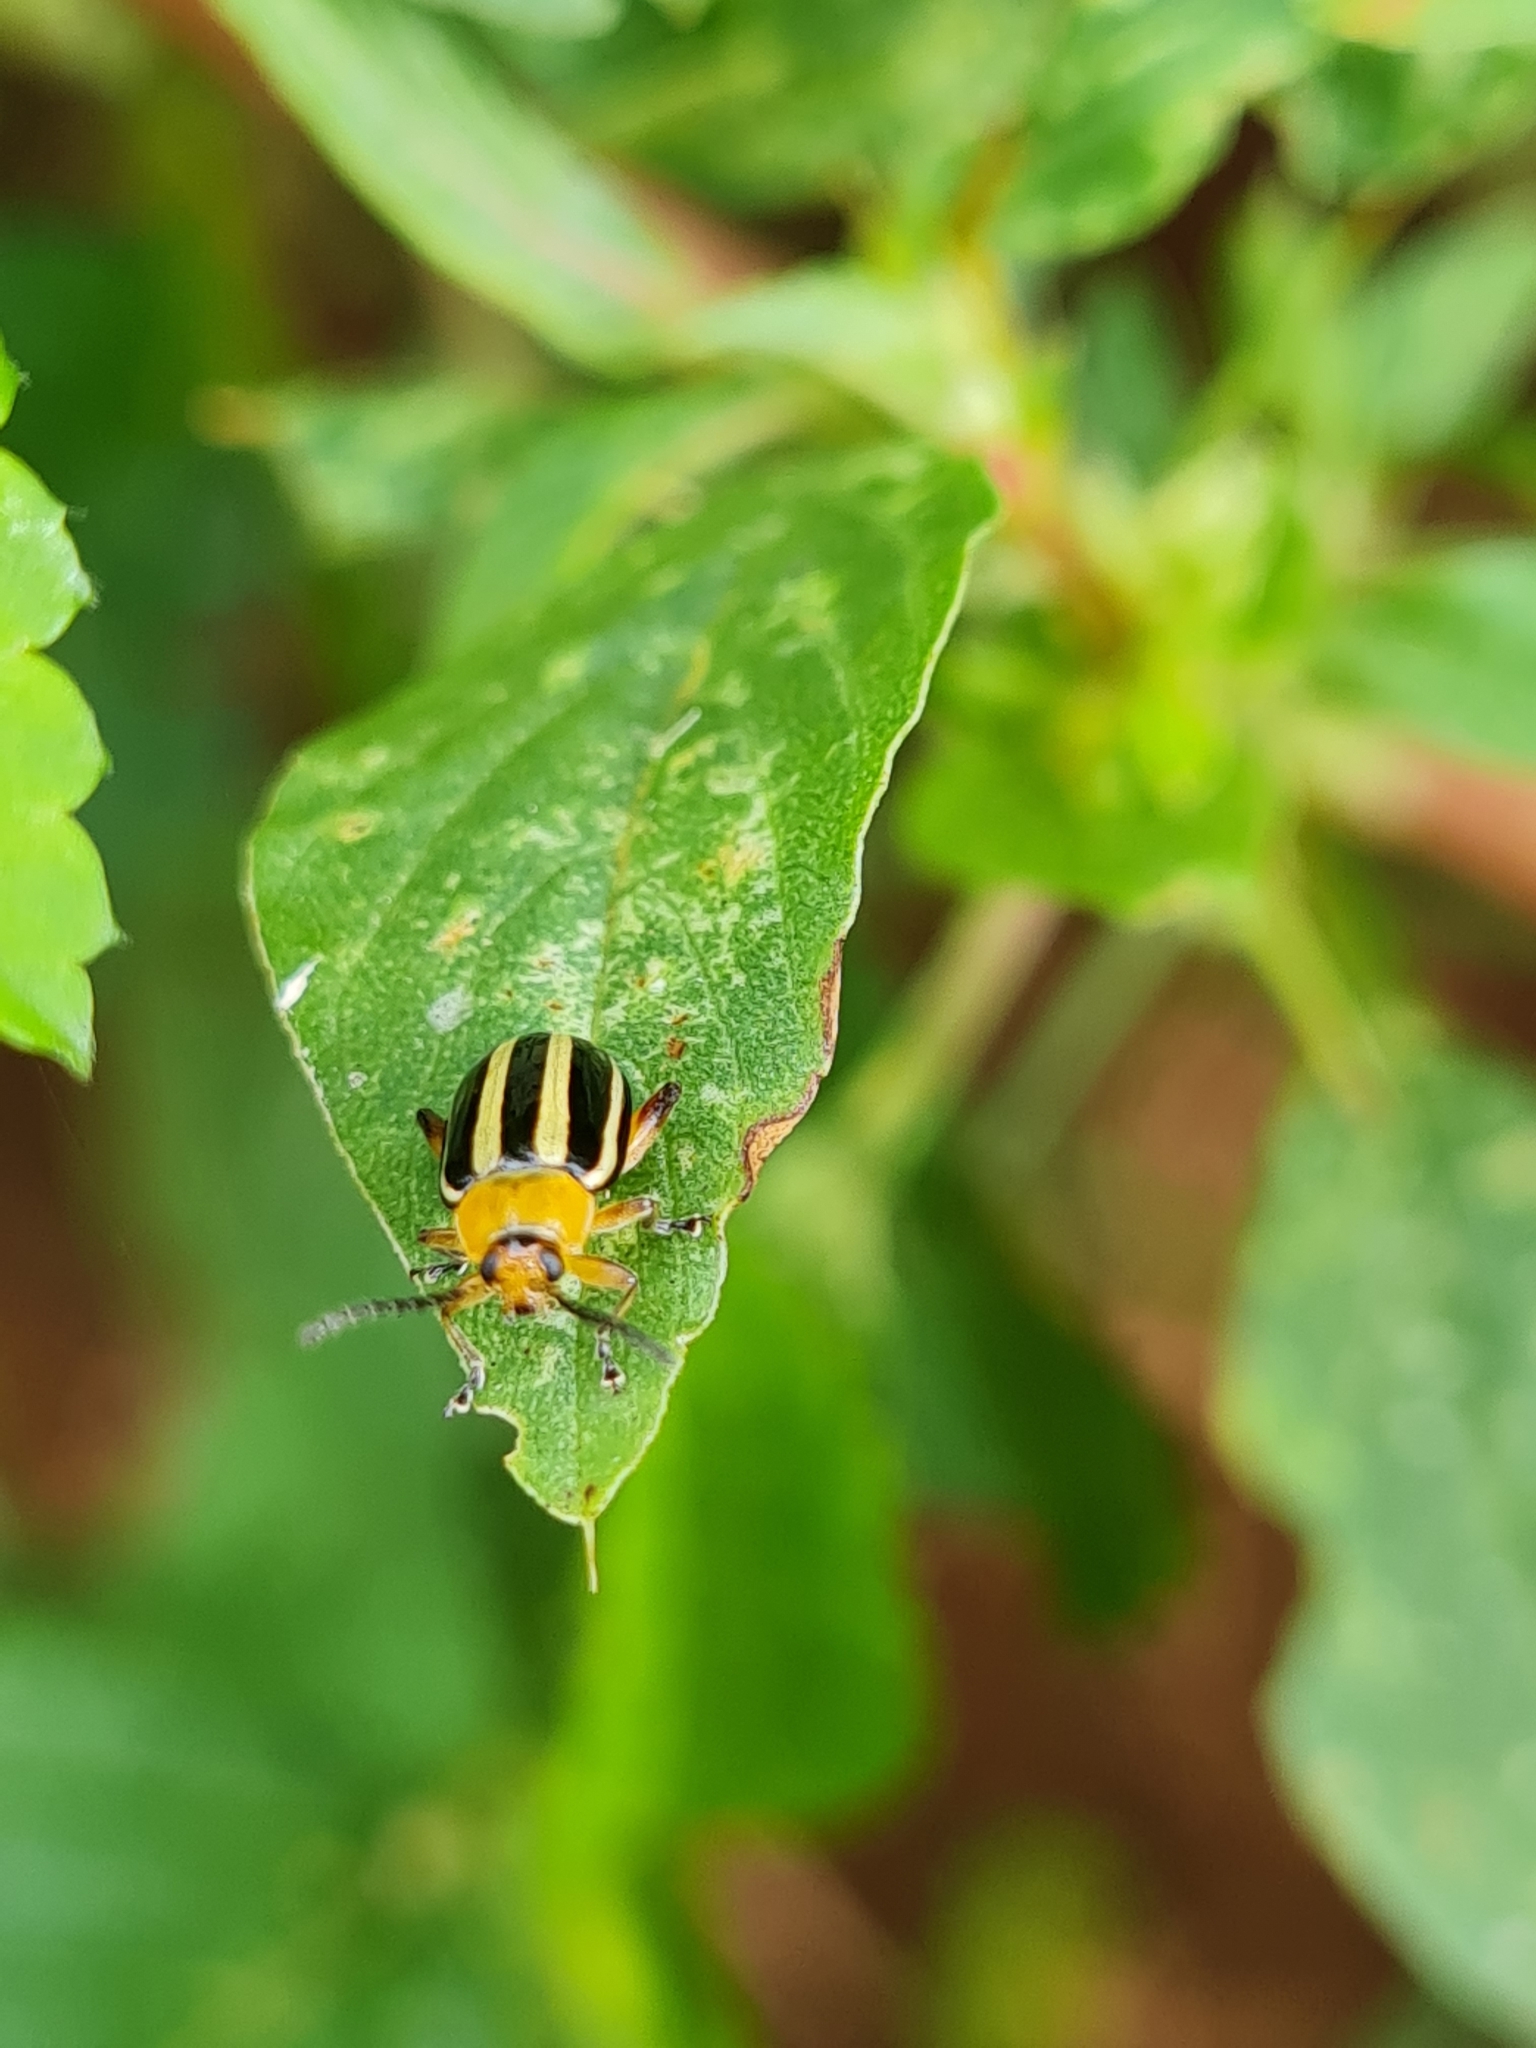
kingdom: Animalia
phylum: Arthropoda
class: Insecta
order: Coleoptera
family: Chrysomelidae
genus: Disonycha
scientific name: Disonycha glabrata
